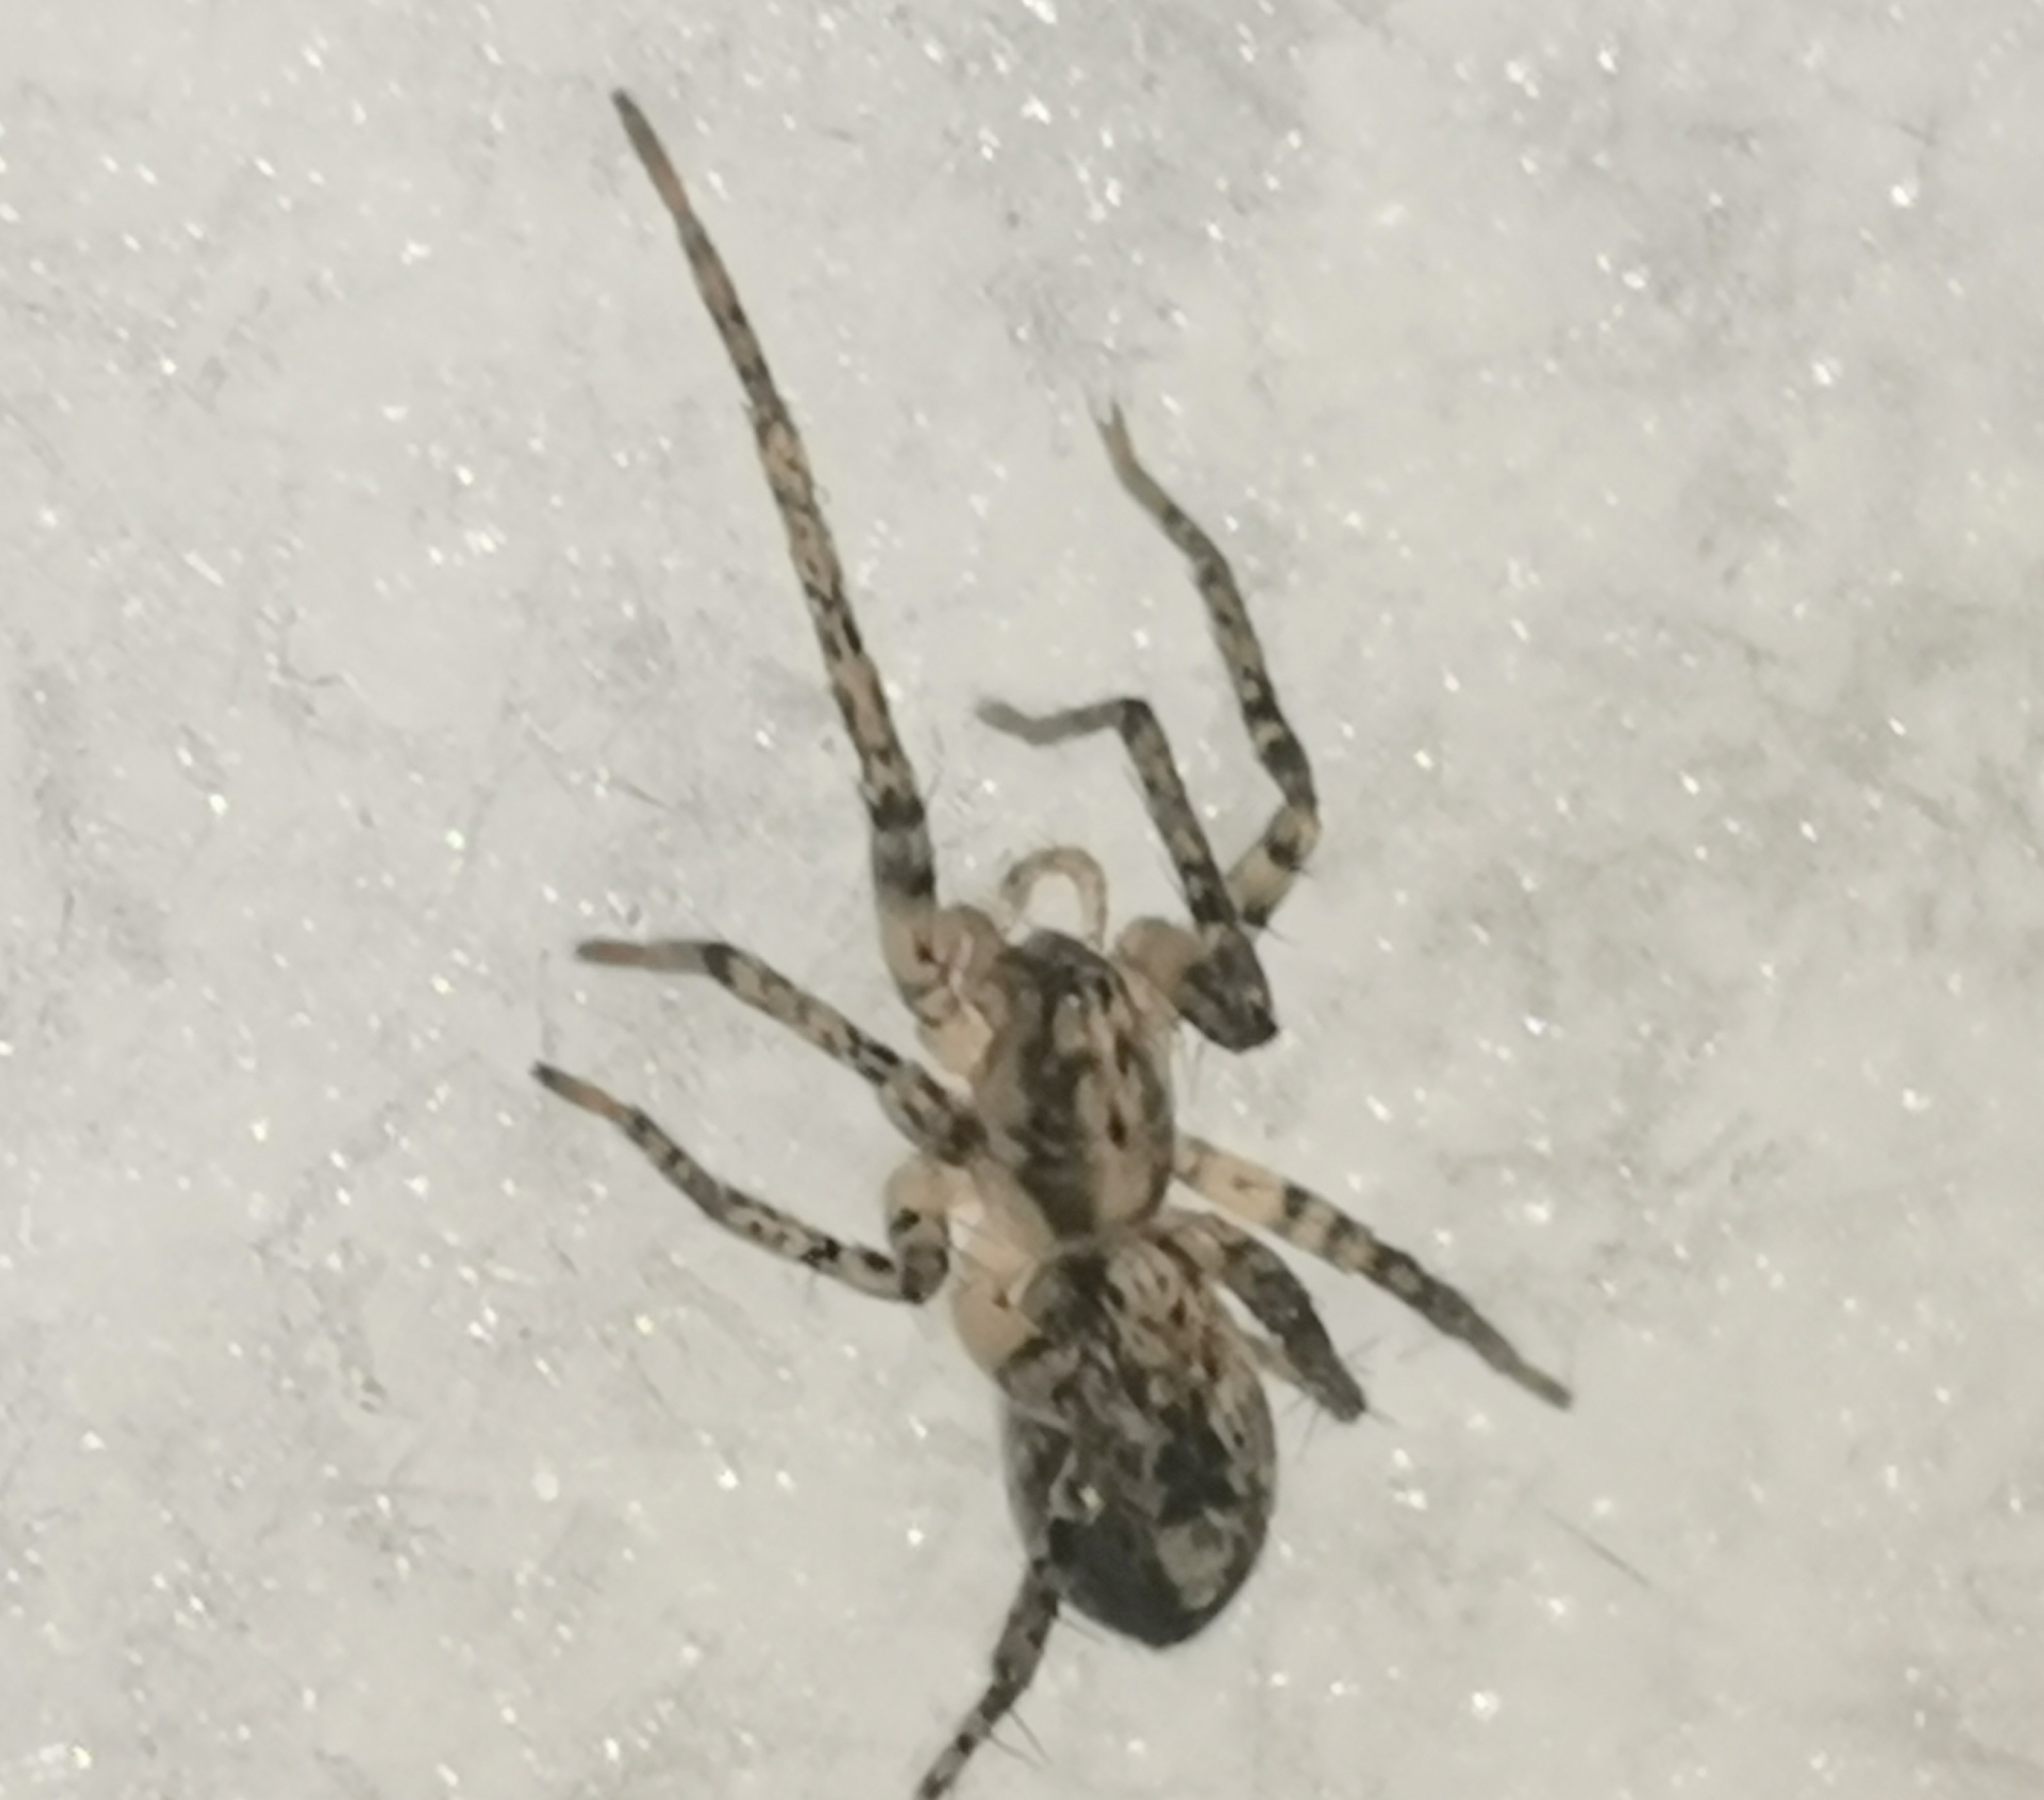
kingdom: Animalia
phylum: Arthropoda
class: Arachnida
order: Araneae
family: Anyphaenidae
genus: Anyphaena
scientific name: Anyphaena accentuata
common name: Buzzing spider
